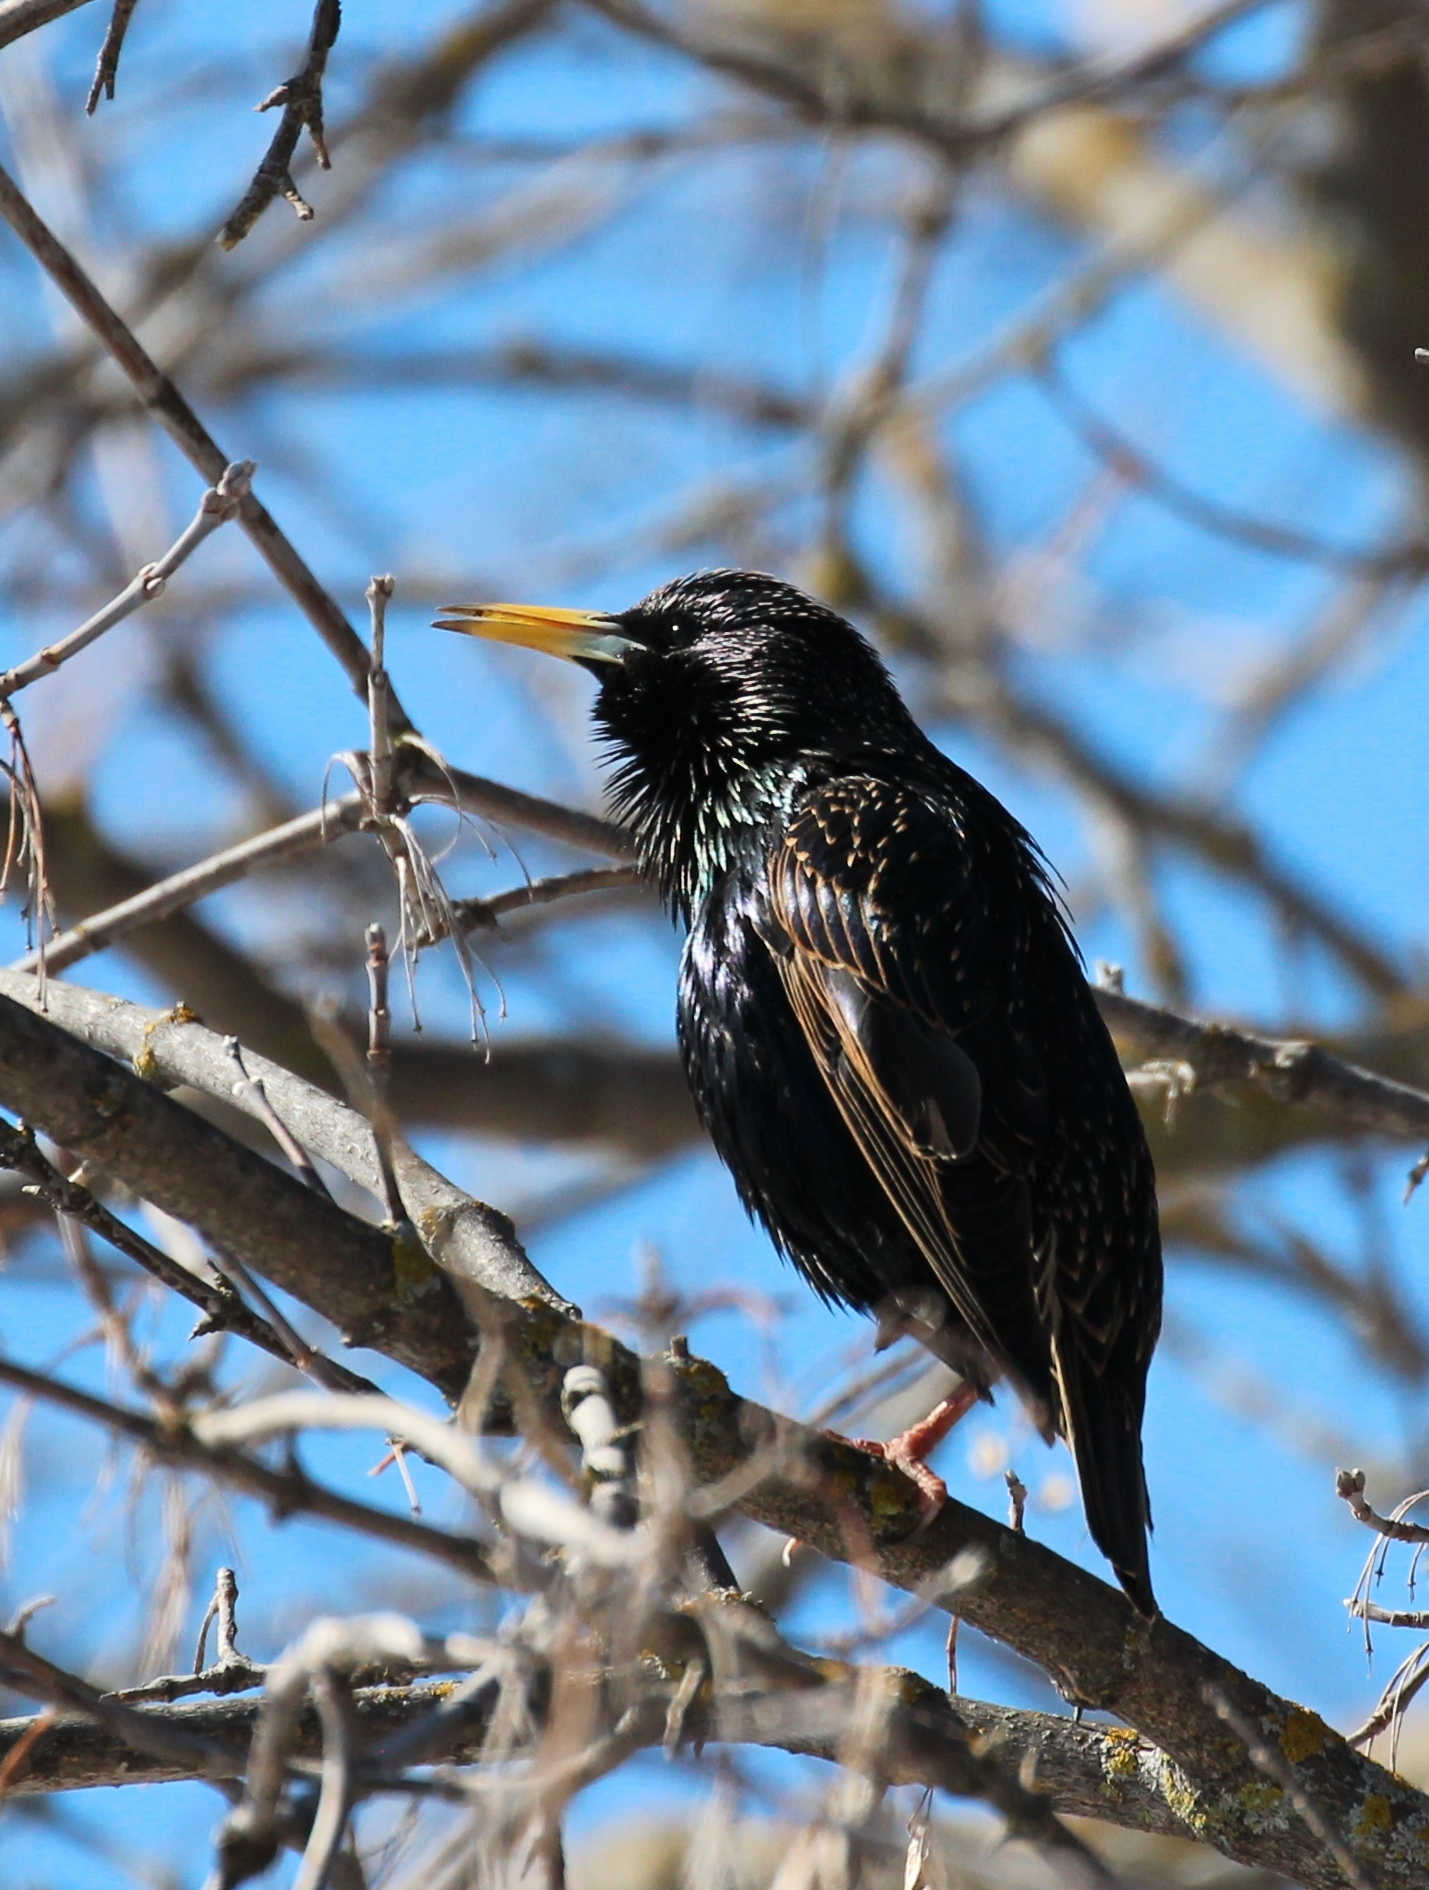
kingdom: Animalia
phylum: Chordata
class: Aves
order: Passeriformes
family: Sturnidae
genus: Sturnus
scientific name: Sturnus vulgaris
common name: Common starling
